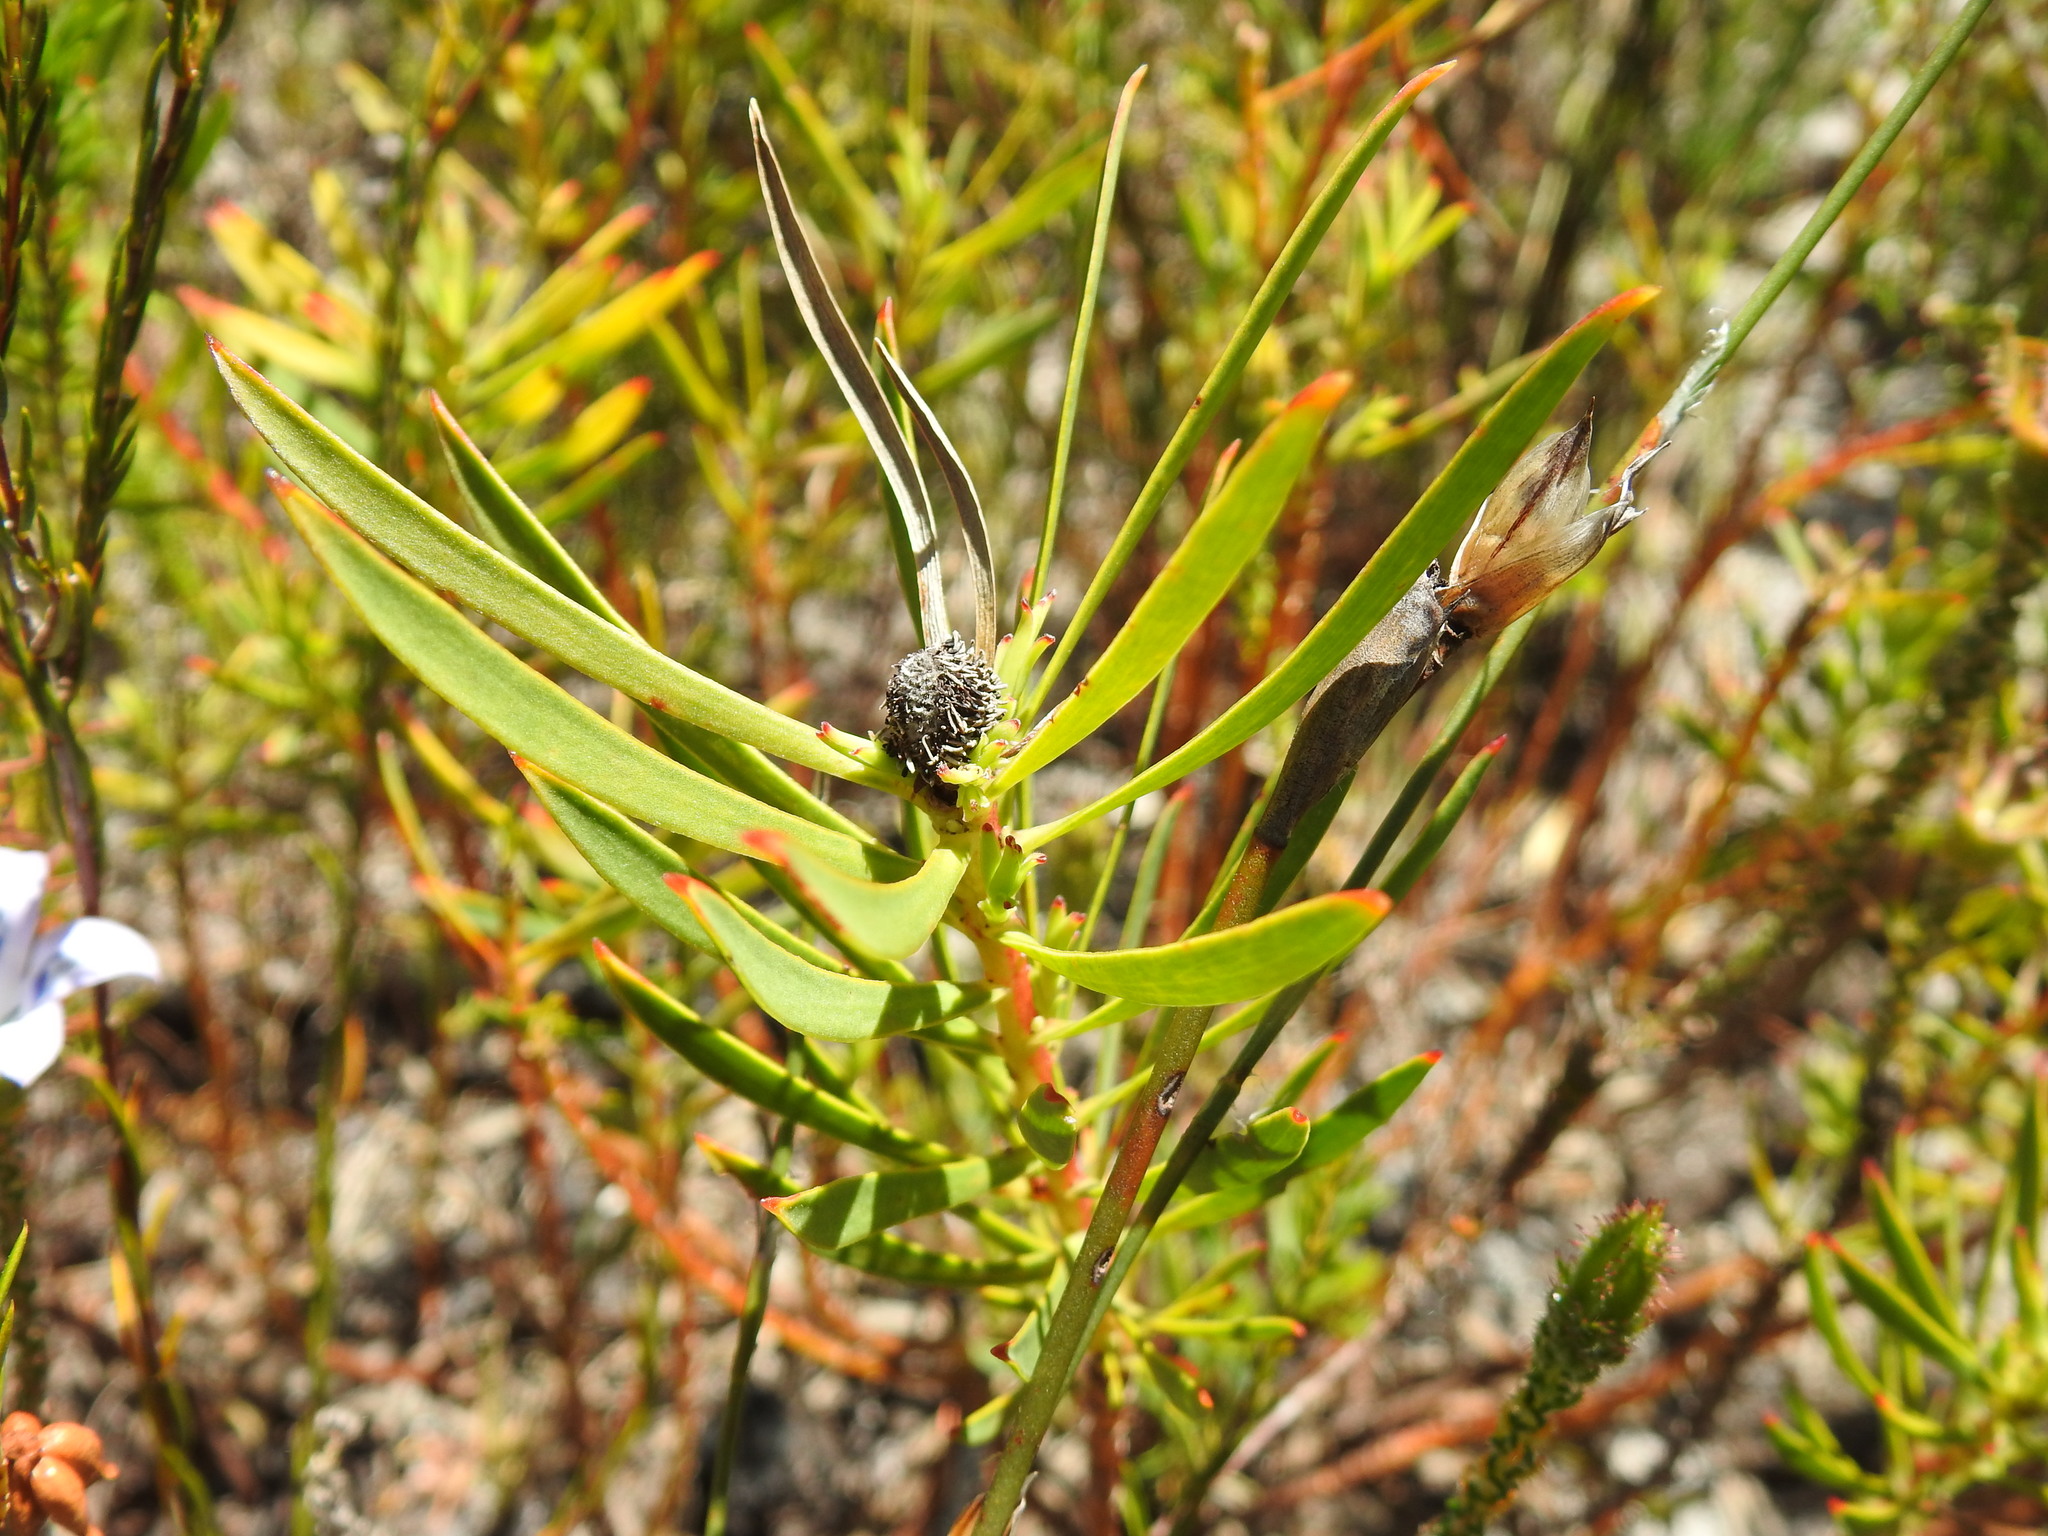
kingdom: Plantae
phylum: Tracheophyta
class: Magnoliopsida
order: Proteales
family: Proteaceae
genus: Leucadendron
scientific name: Leucadendron salignum
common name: Common sunshine conebush
